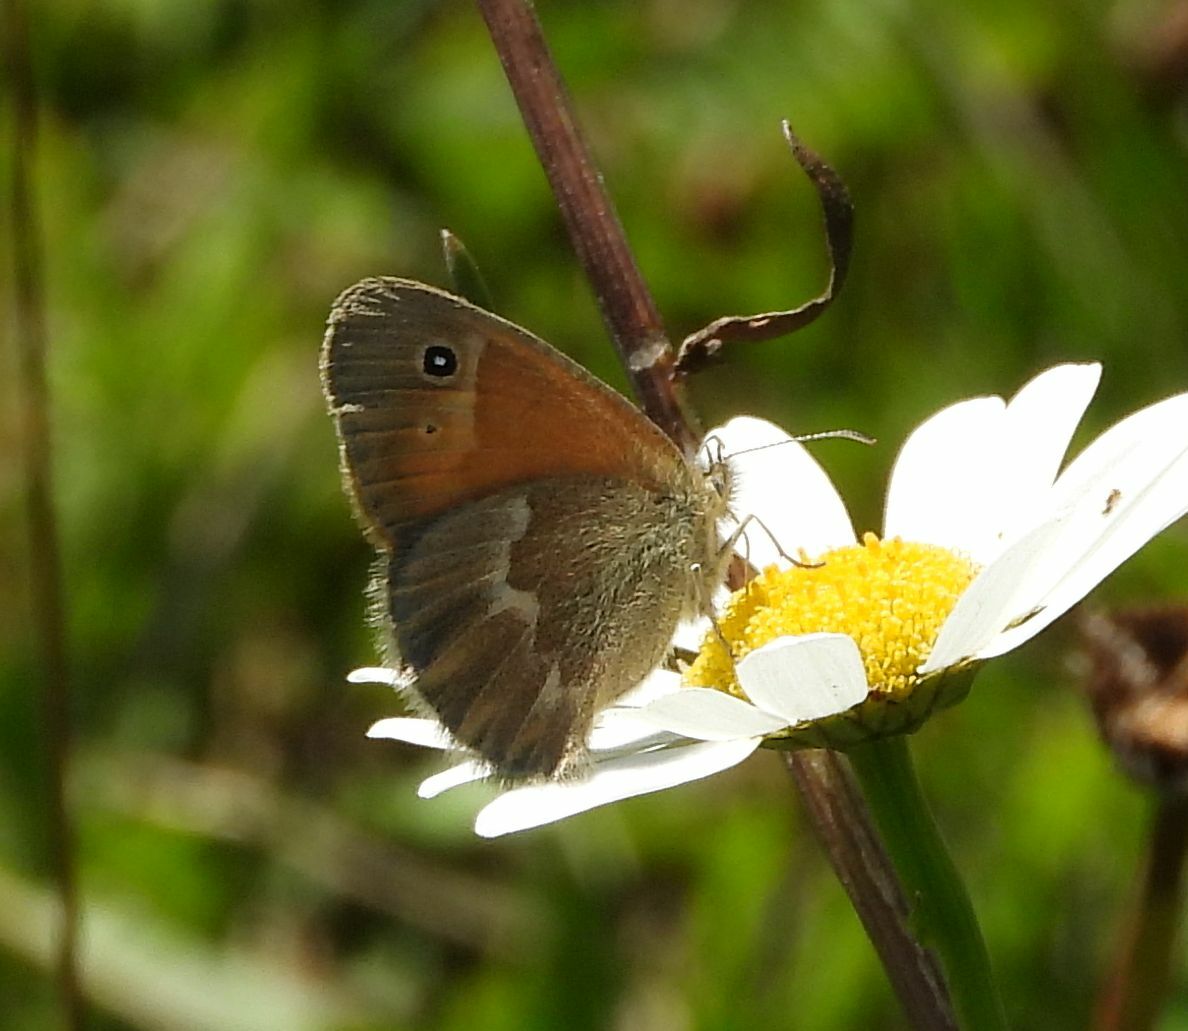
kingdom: Animalia
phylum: Arthropoda
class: Insecta
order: Lepidoptera
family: Nymphalidae
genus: Coenonympha
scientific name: Coenonympha california
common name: Common ringlet
